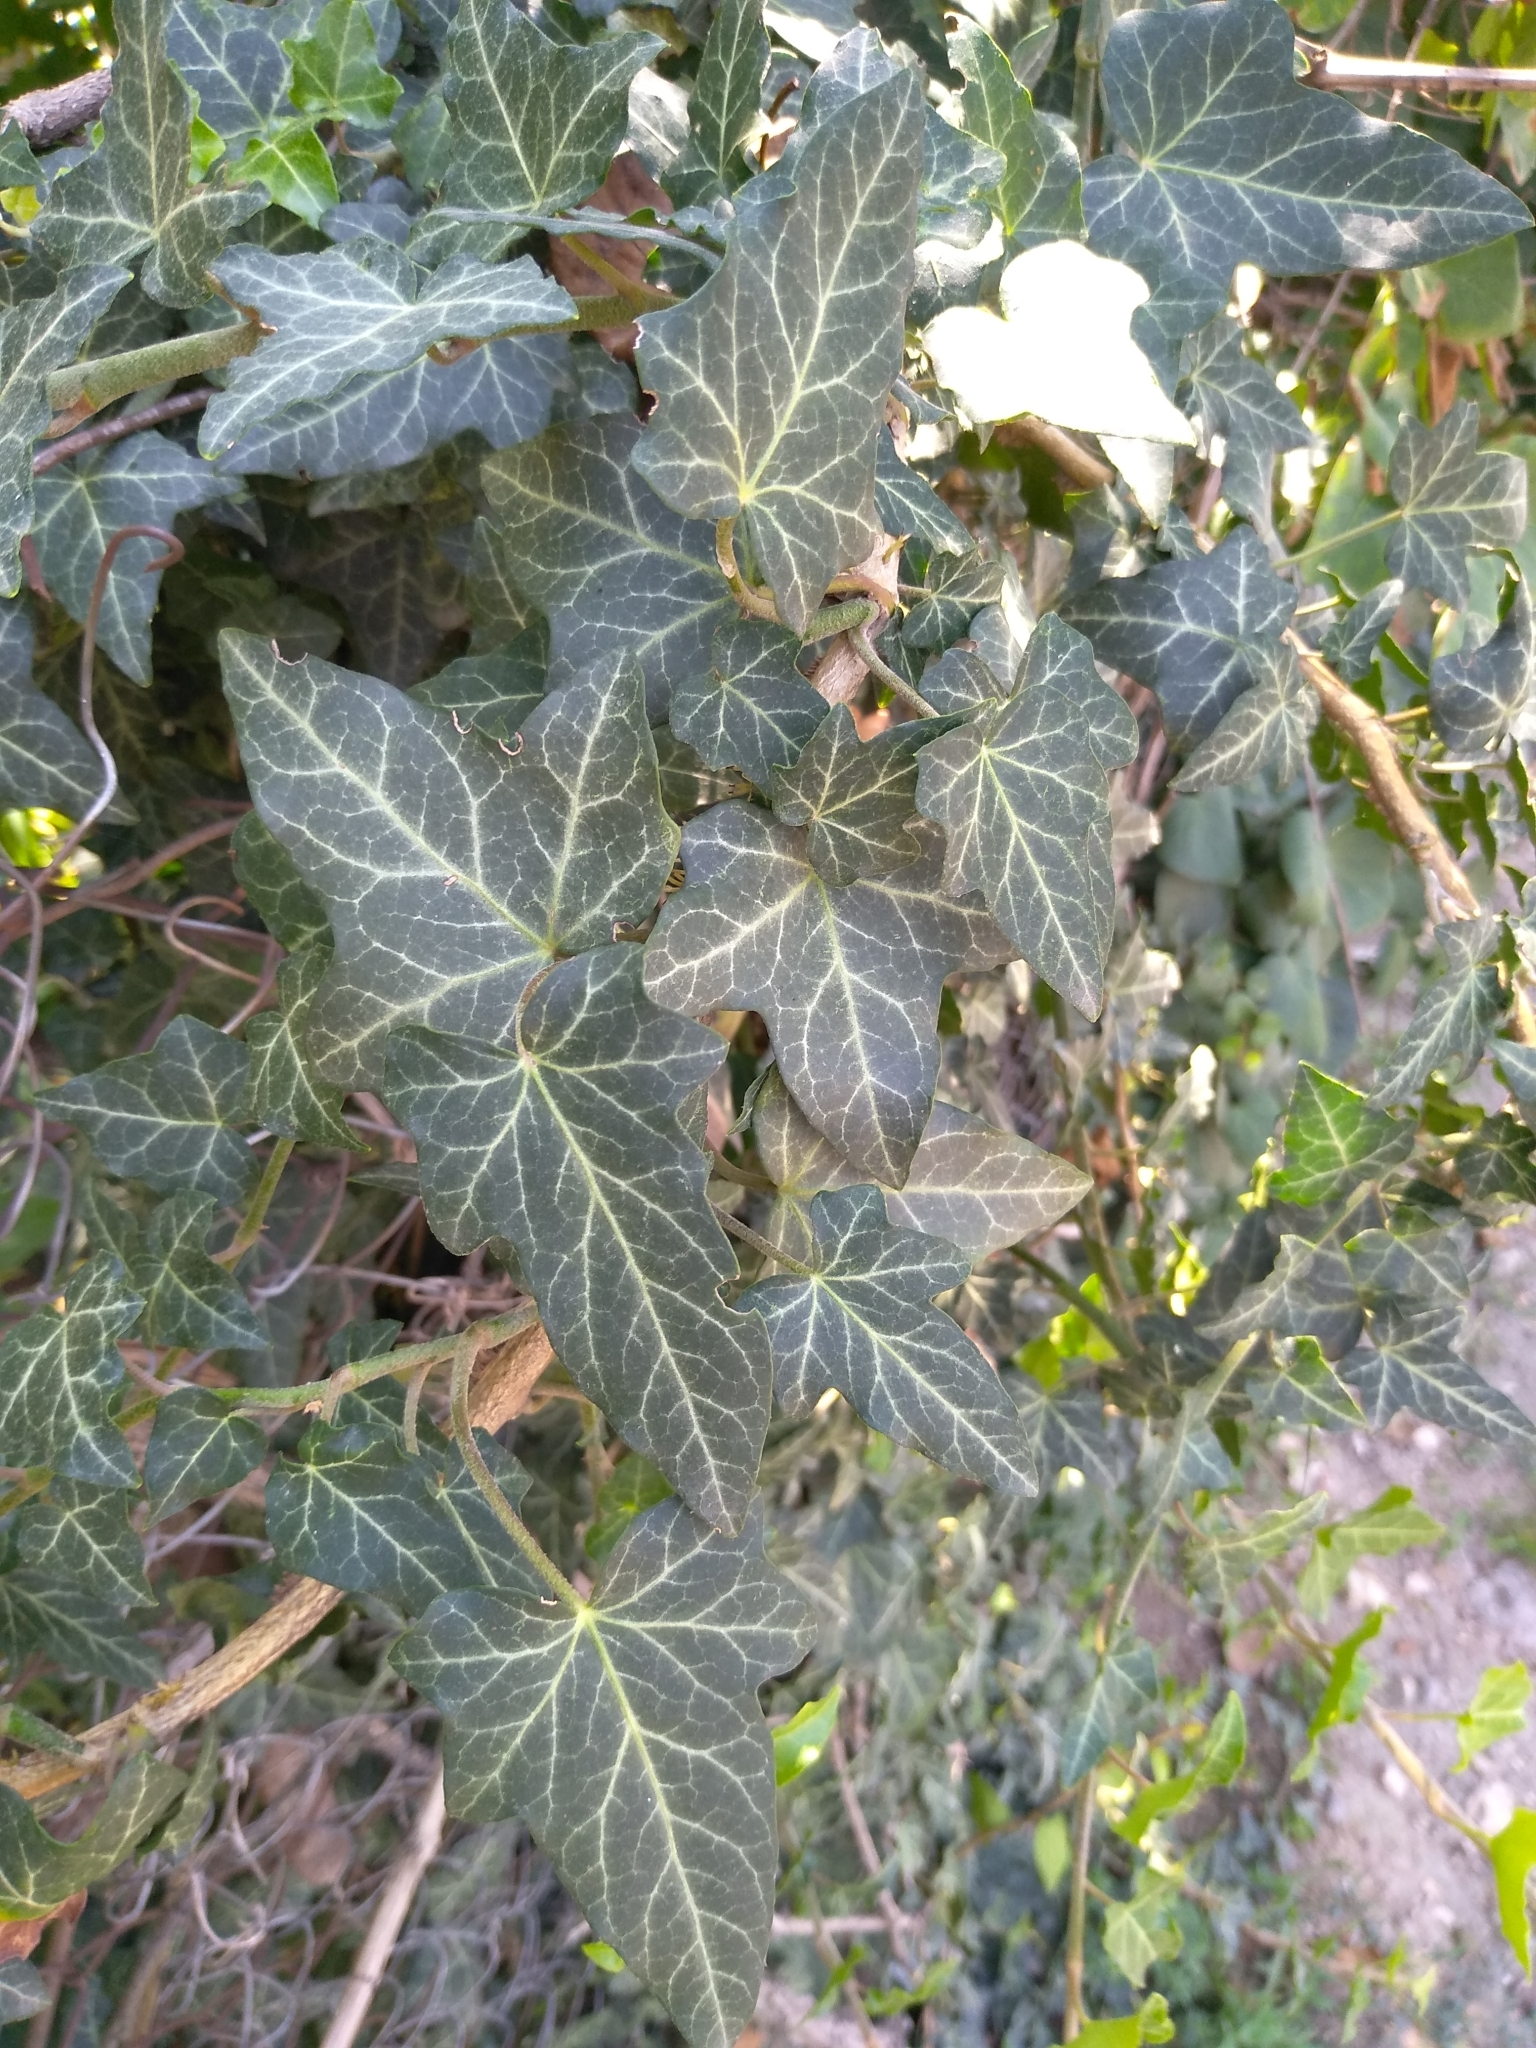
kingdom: Plantae
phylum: Tracheophyta
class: Magnoliopsida
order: Apiales
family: Araliaceae
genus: Hedera
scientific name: Hedera helix
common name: Ivy
